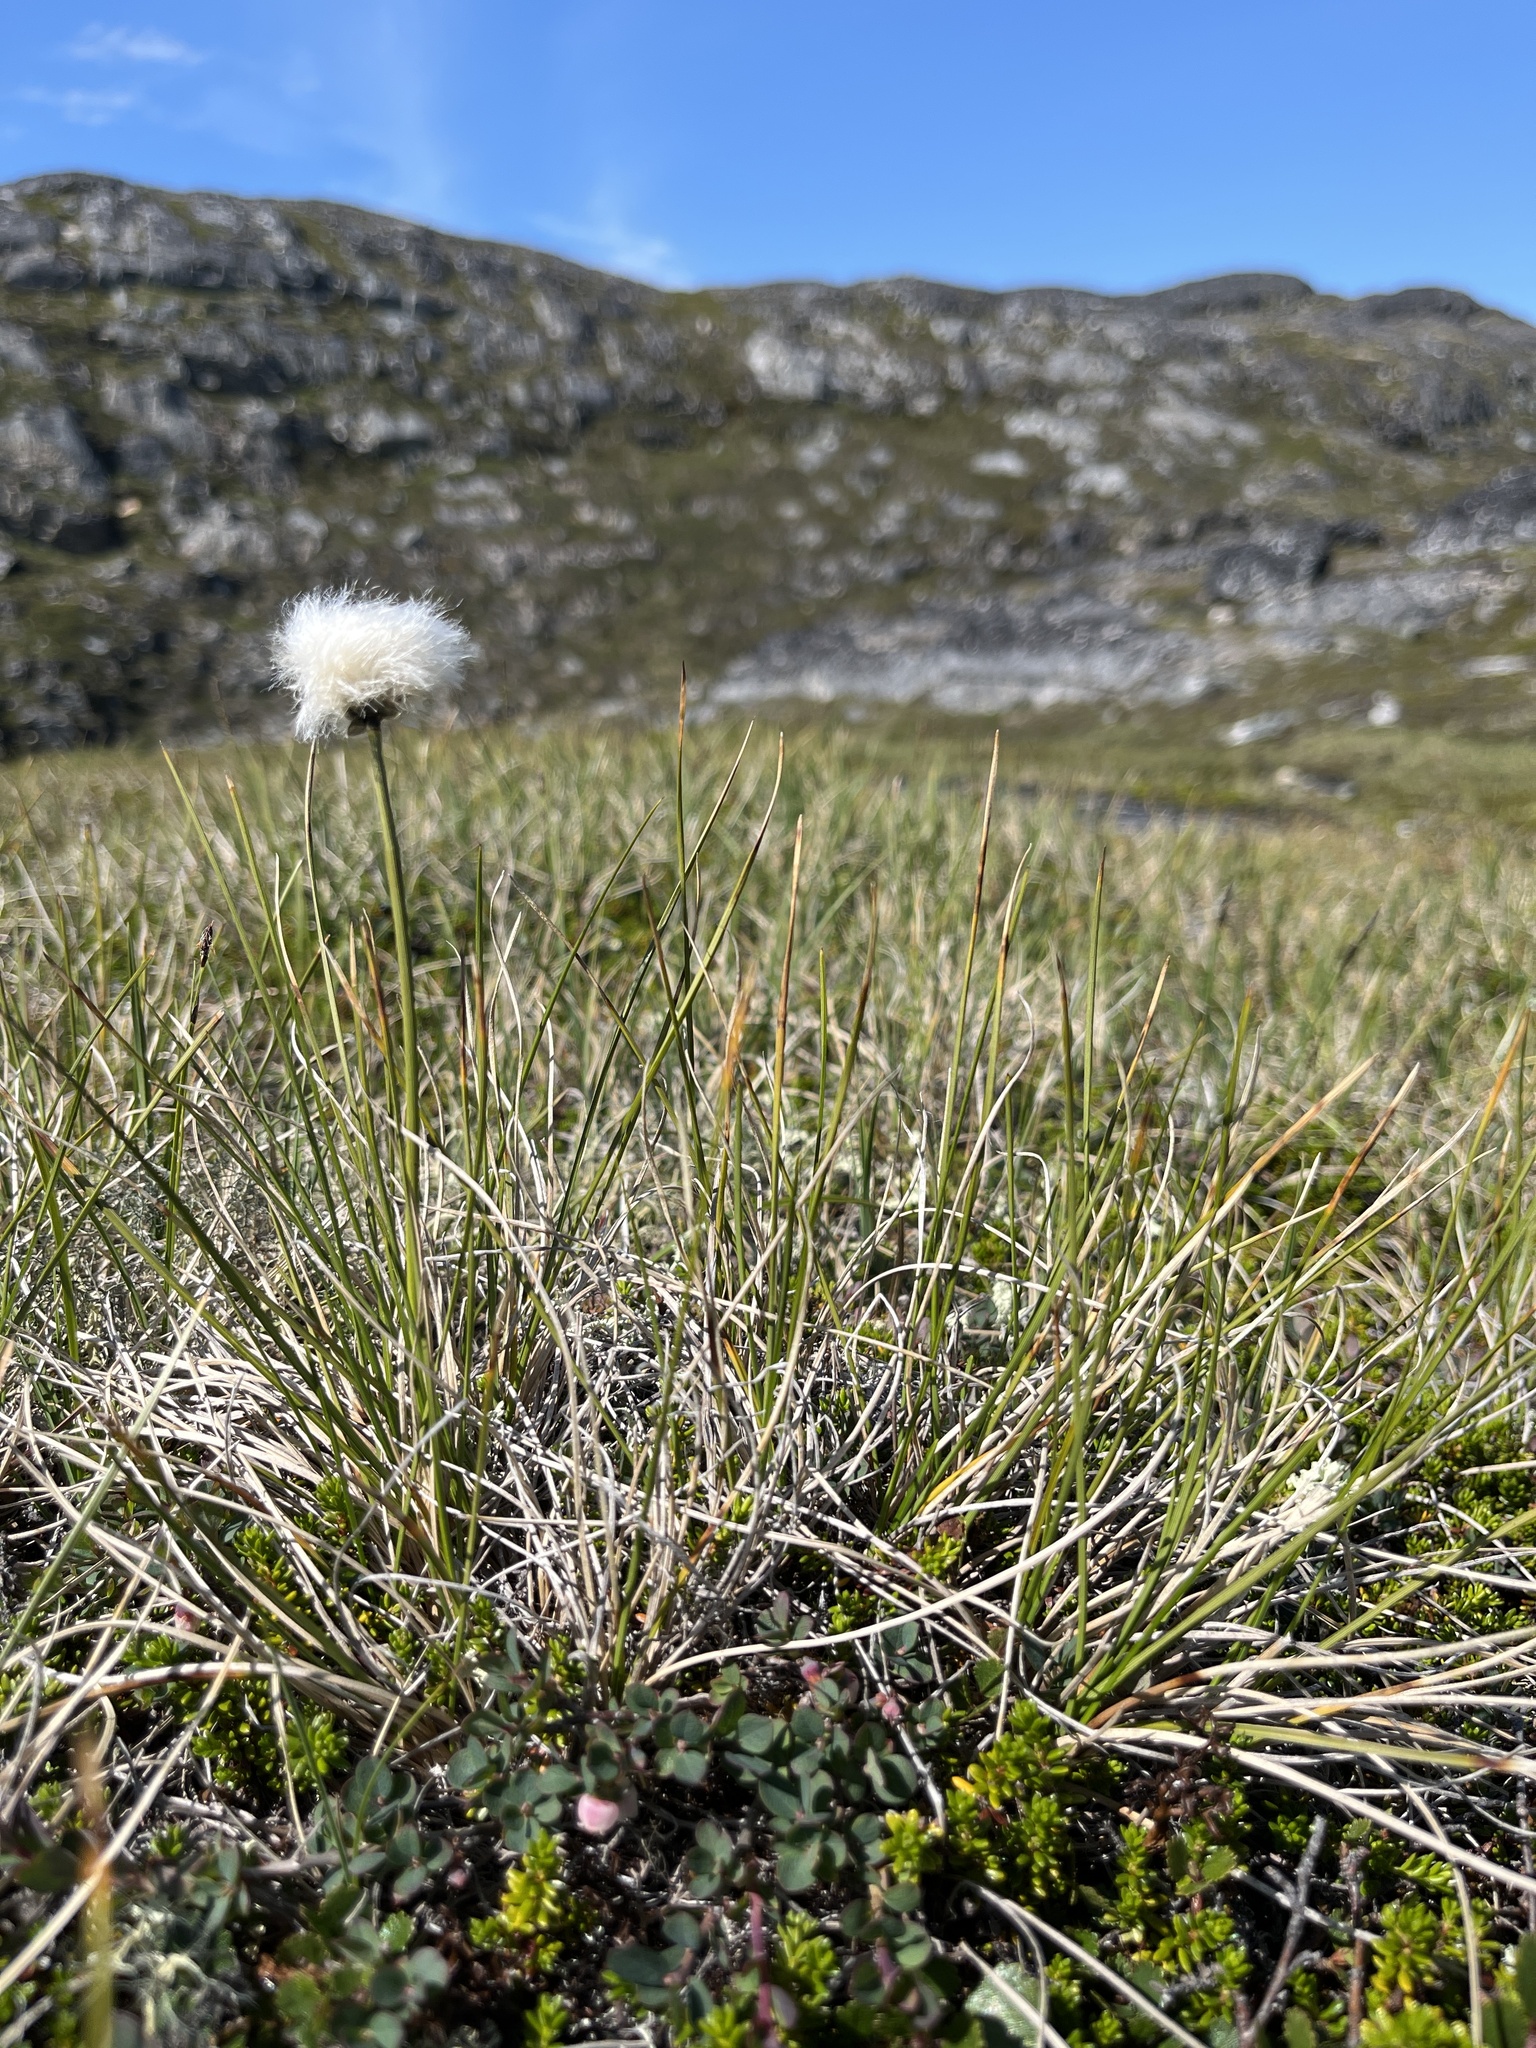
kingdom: Plantae
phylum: Tracheophyta
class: Liliopsida
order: Poales
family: Cyperaceae
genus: Eriophorum
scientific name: Eriophorum vaginatum
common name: Hare's-tail cottongrass
